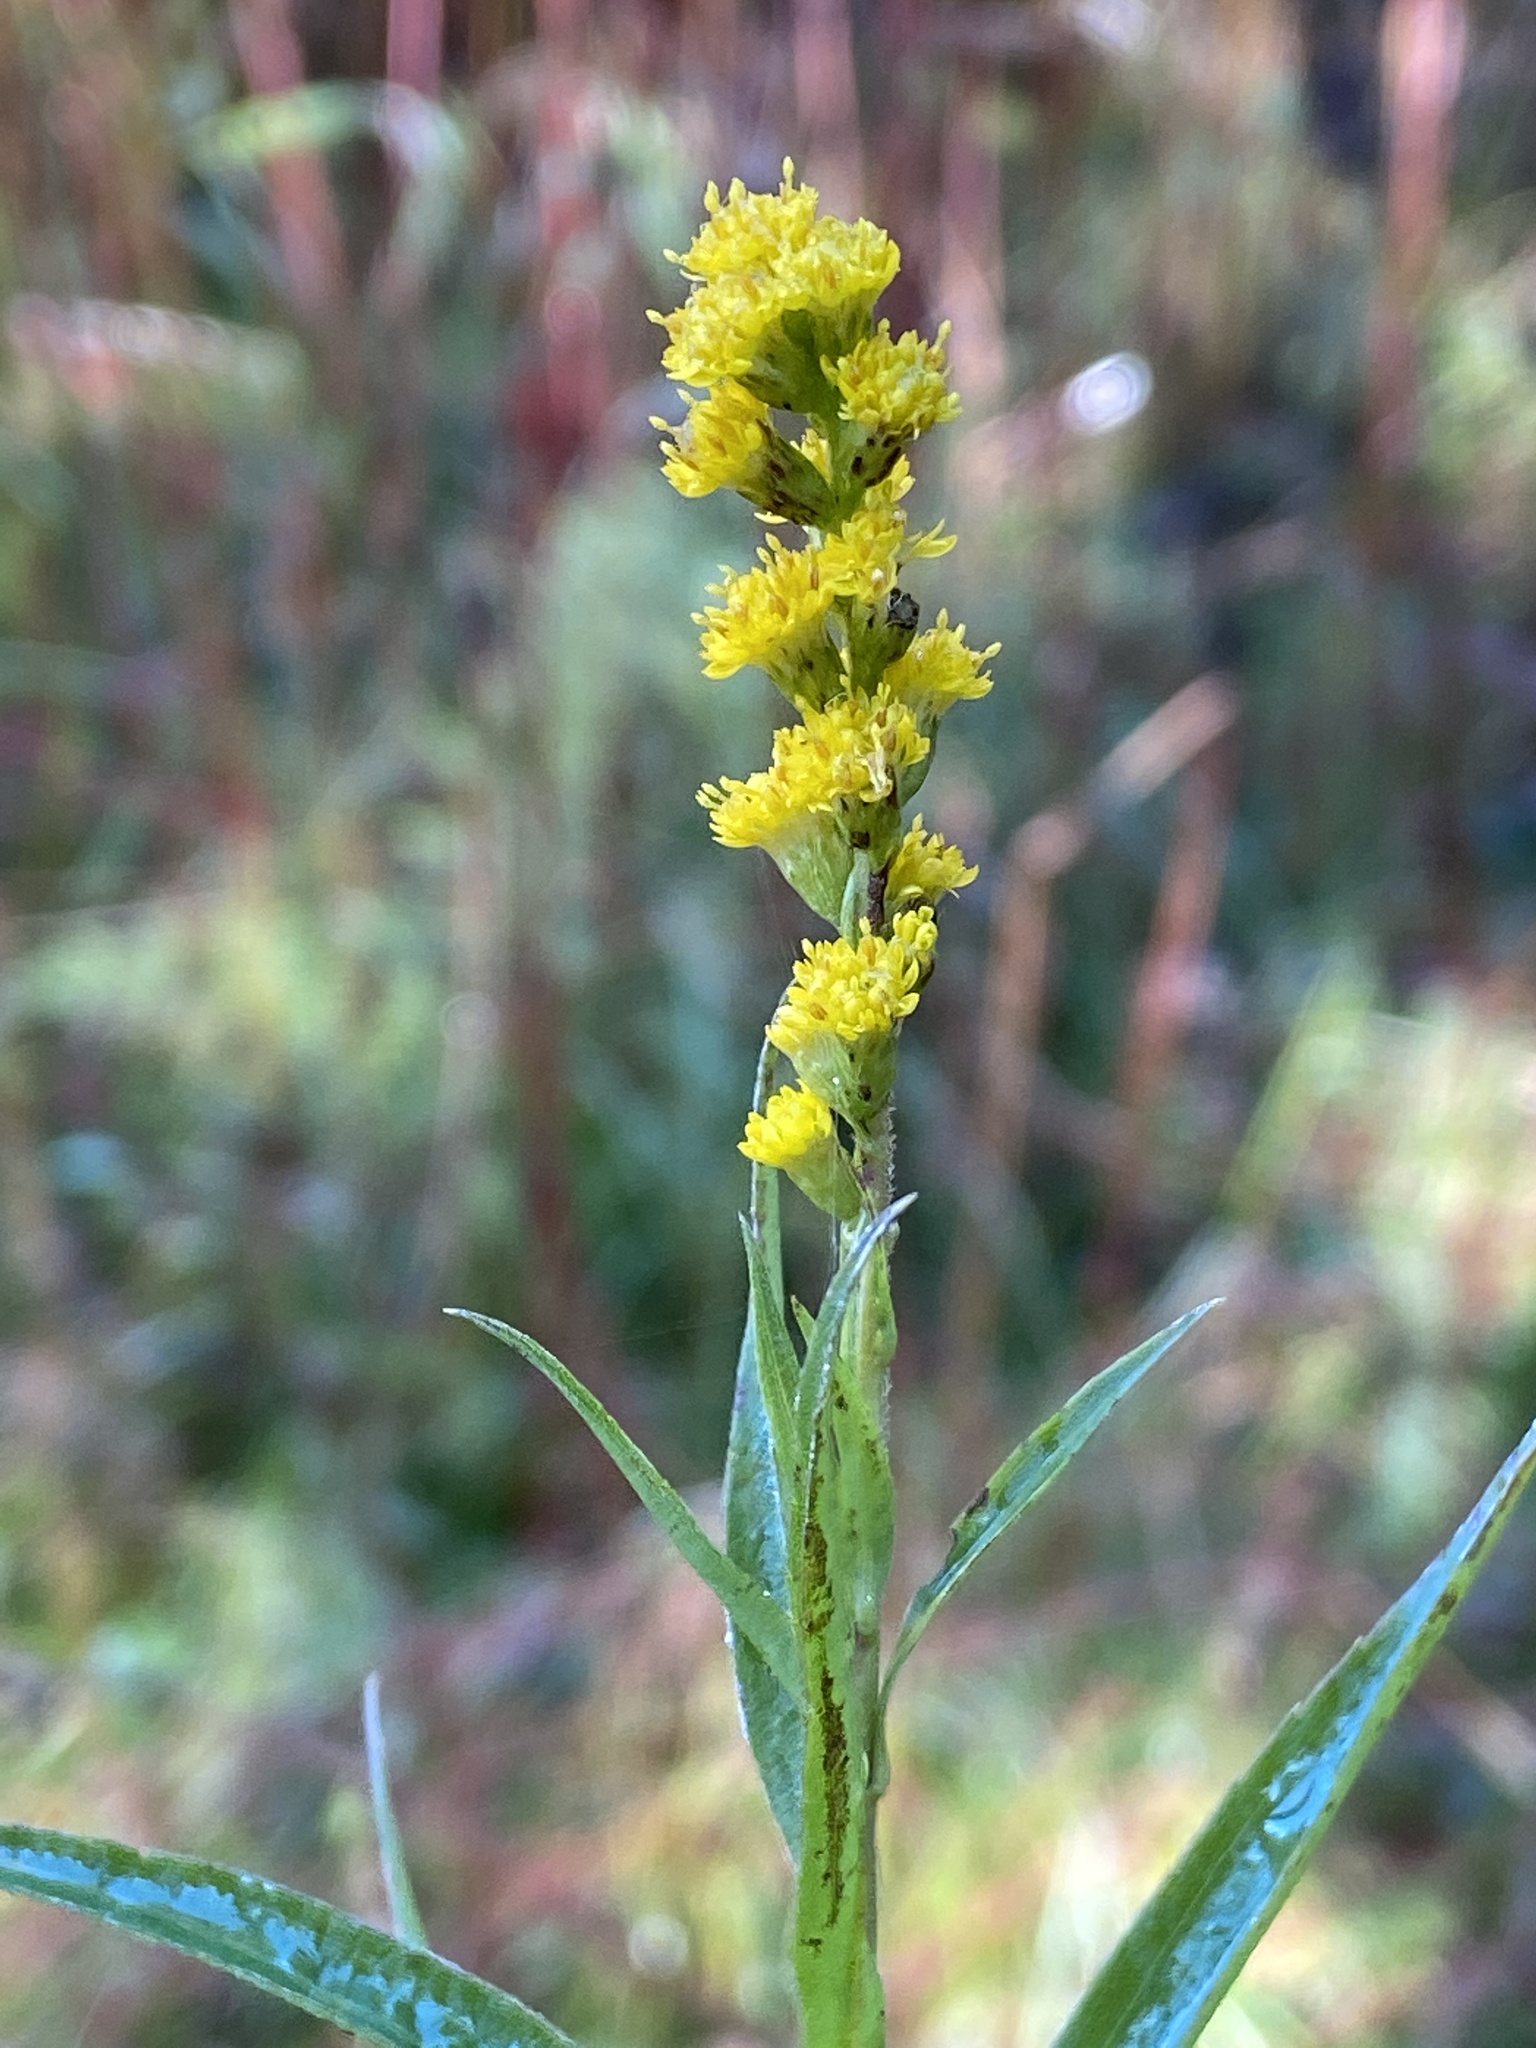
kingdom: Plantae
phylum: Tracheophyta
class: Magnoliopsida
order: Asterales
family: Asteraceae
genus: Solidago
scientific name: Solidago canadensis
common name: Canada goldenrod
